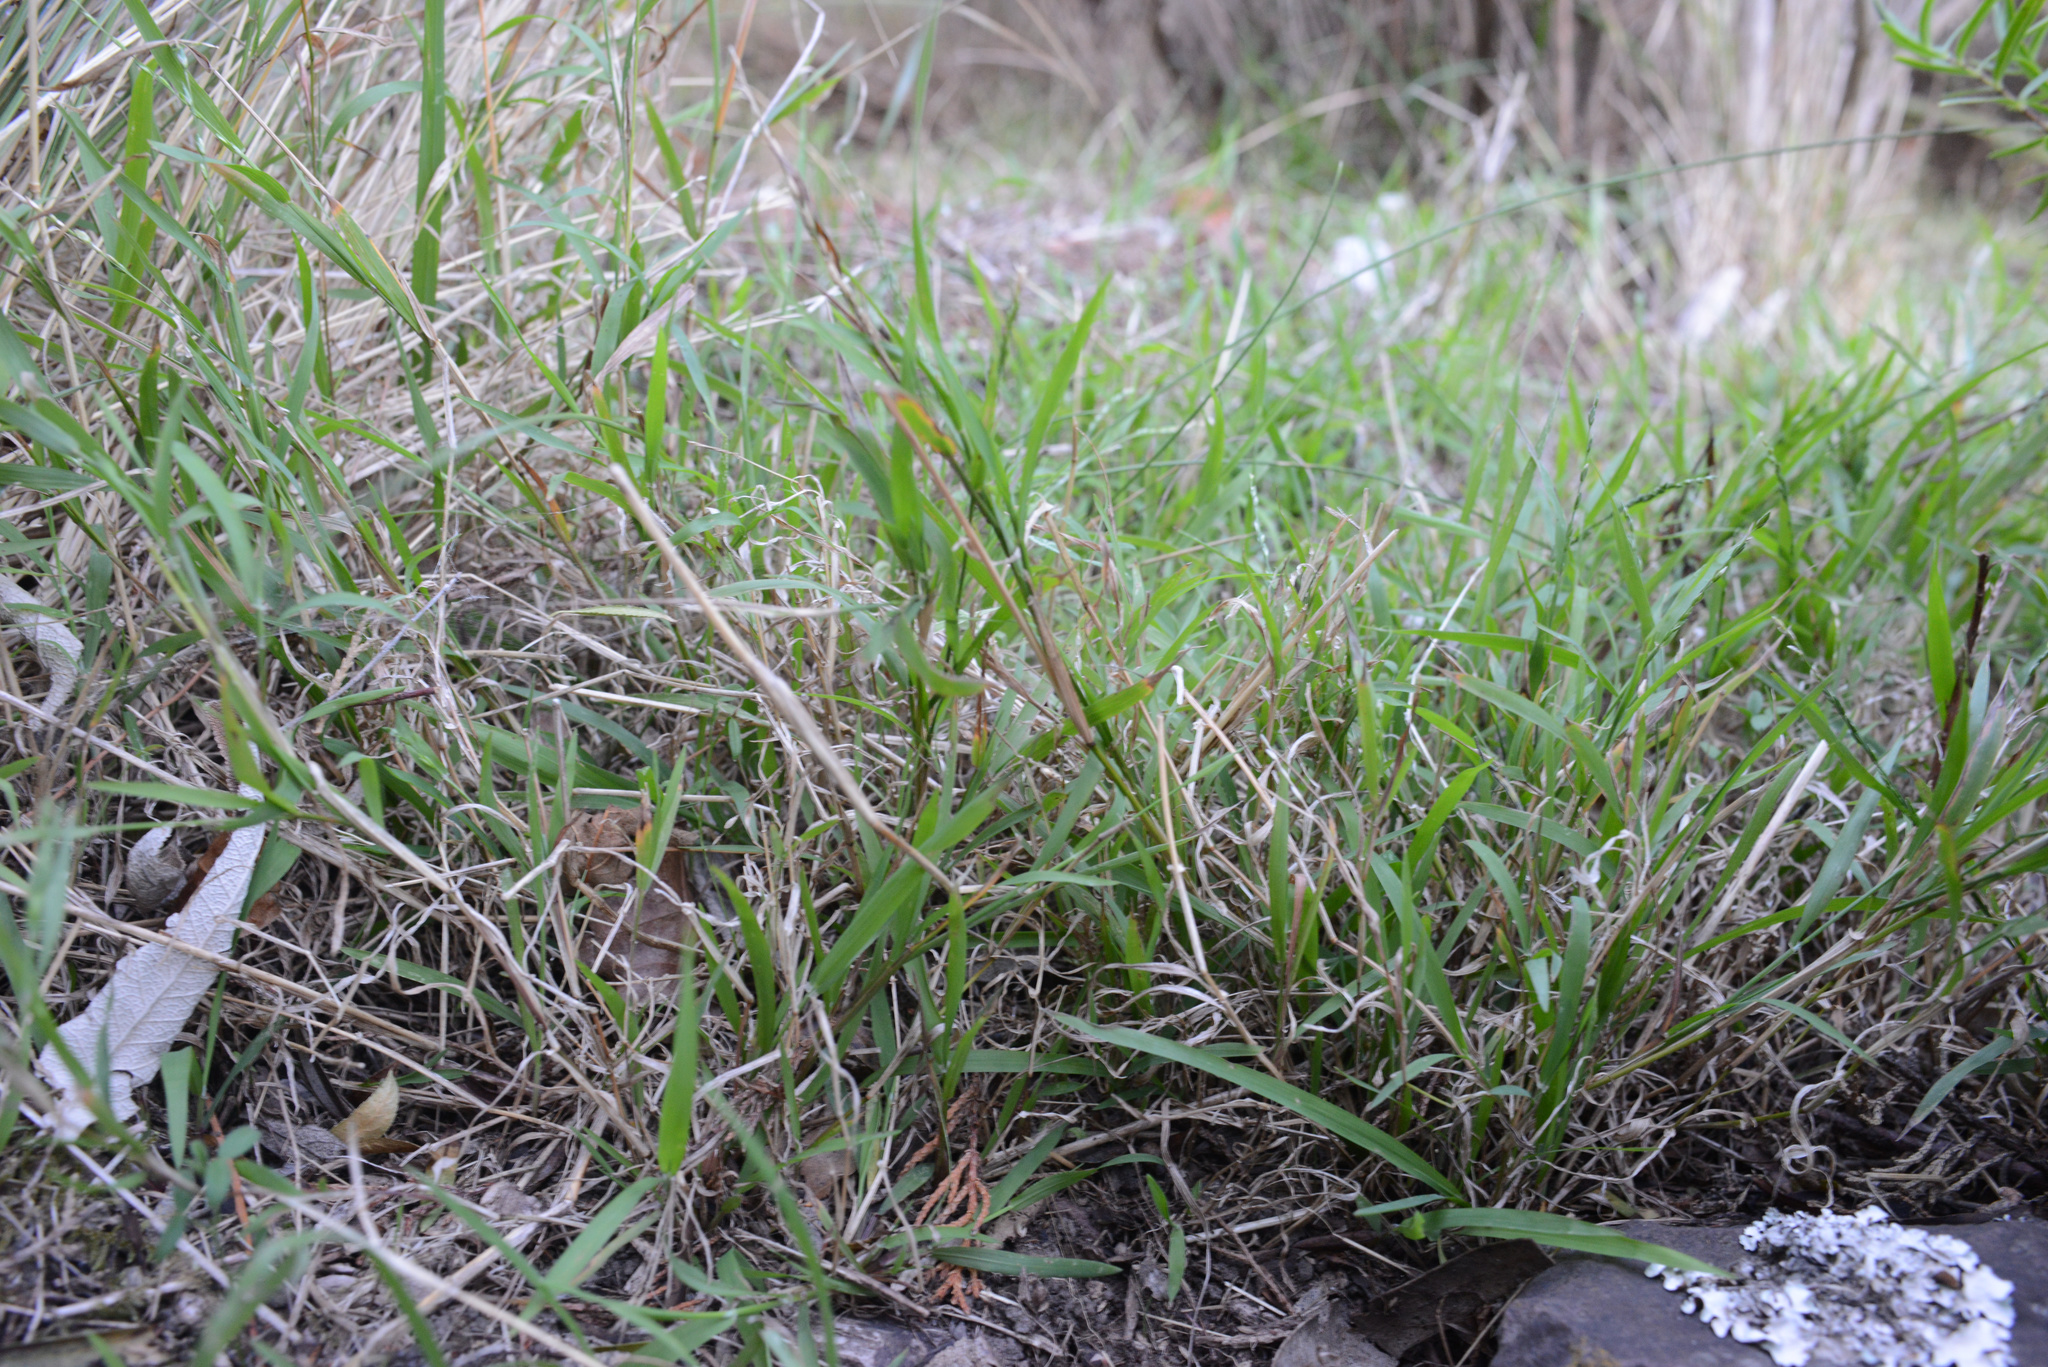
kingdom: Plantae
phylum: Tracheophyta
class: Liliopsida
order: Poales
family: Poaceae
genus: Ehrharta
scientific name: Ehrharta erecta
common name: Panic veldtgrass
